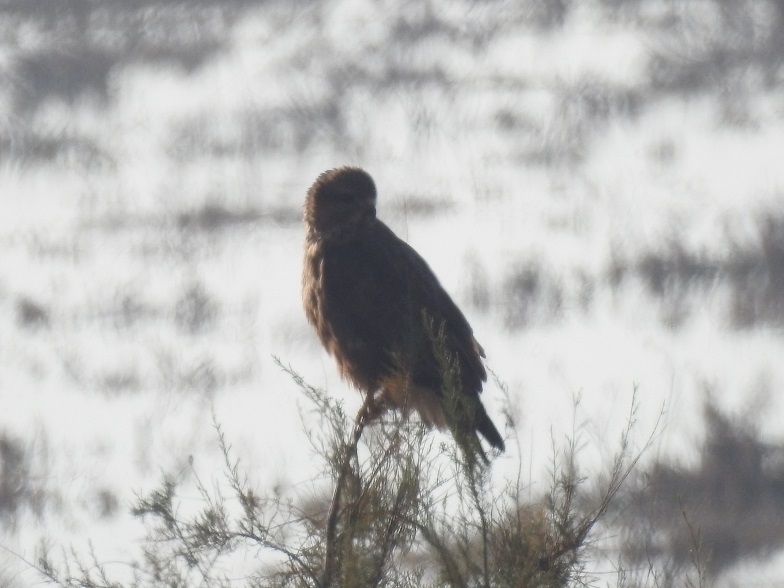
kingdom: Animalia
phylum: Chordata
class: Aves
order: Accipitriformes
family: Accipitridae
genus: Buteo
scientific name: Buteo rufinus
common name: Long-legged buzzard
